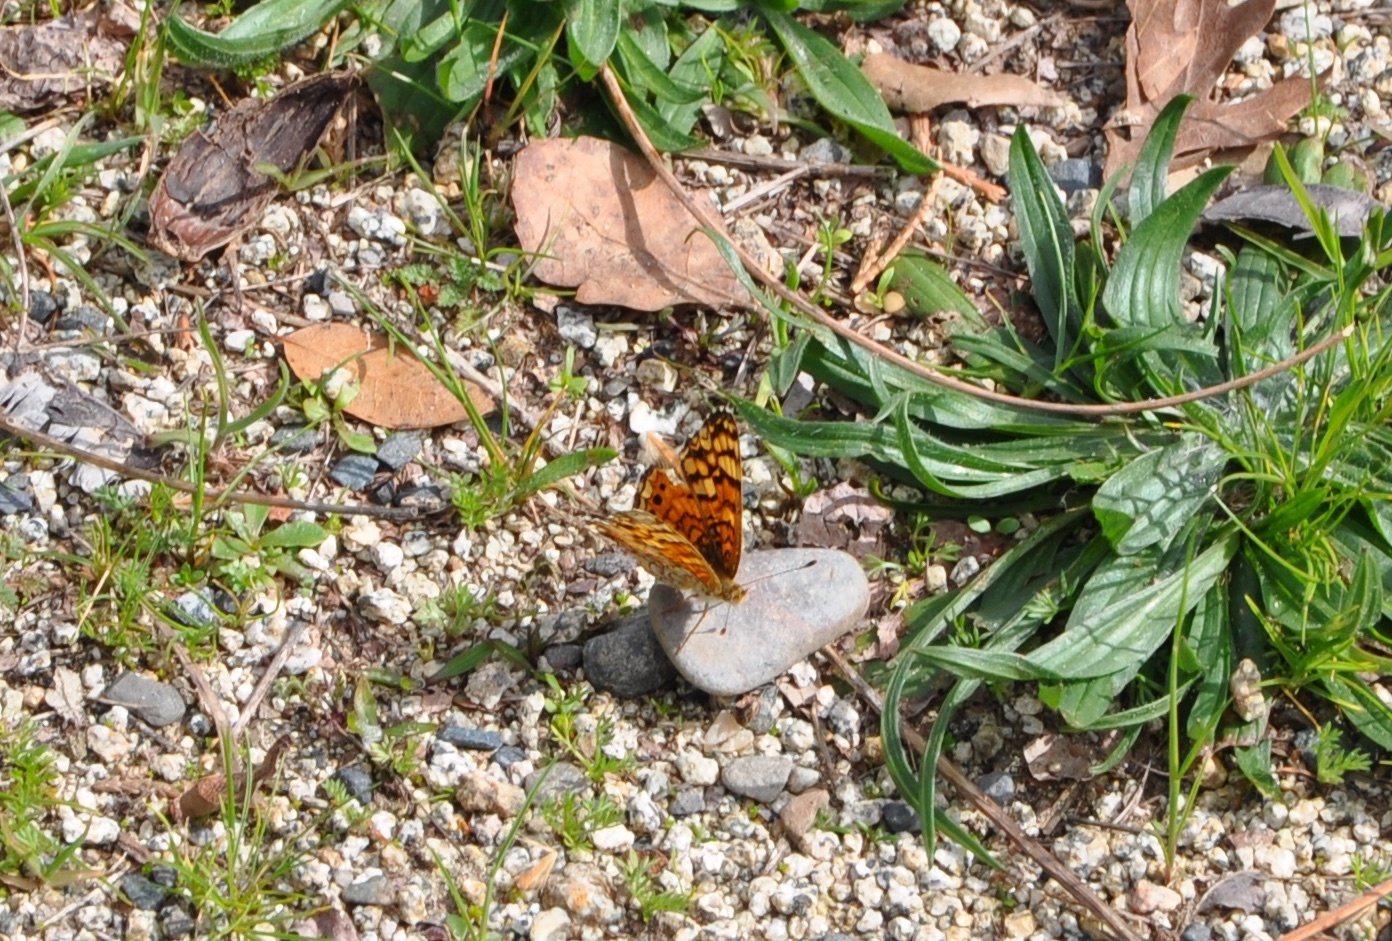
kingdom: Animalia
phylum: Arthropoda
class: Insecta
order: Lepidoptera
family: Nymphalidae
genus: Eresia
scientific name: Eresia aveyrona
